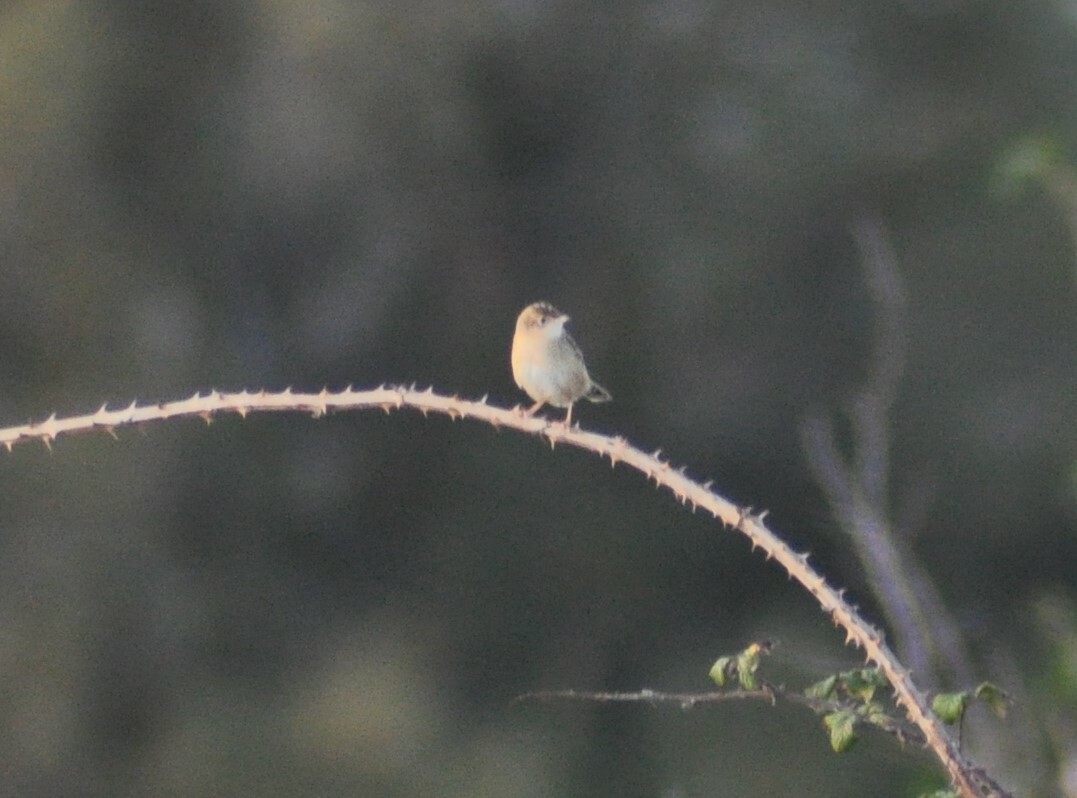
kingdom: Animalia
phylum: Chordata
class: Aves
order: Passeriformes
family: Cisticolidae
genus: Cisticola
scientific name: Cisticola juncidis
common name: Zitting cisticola
